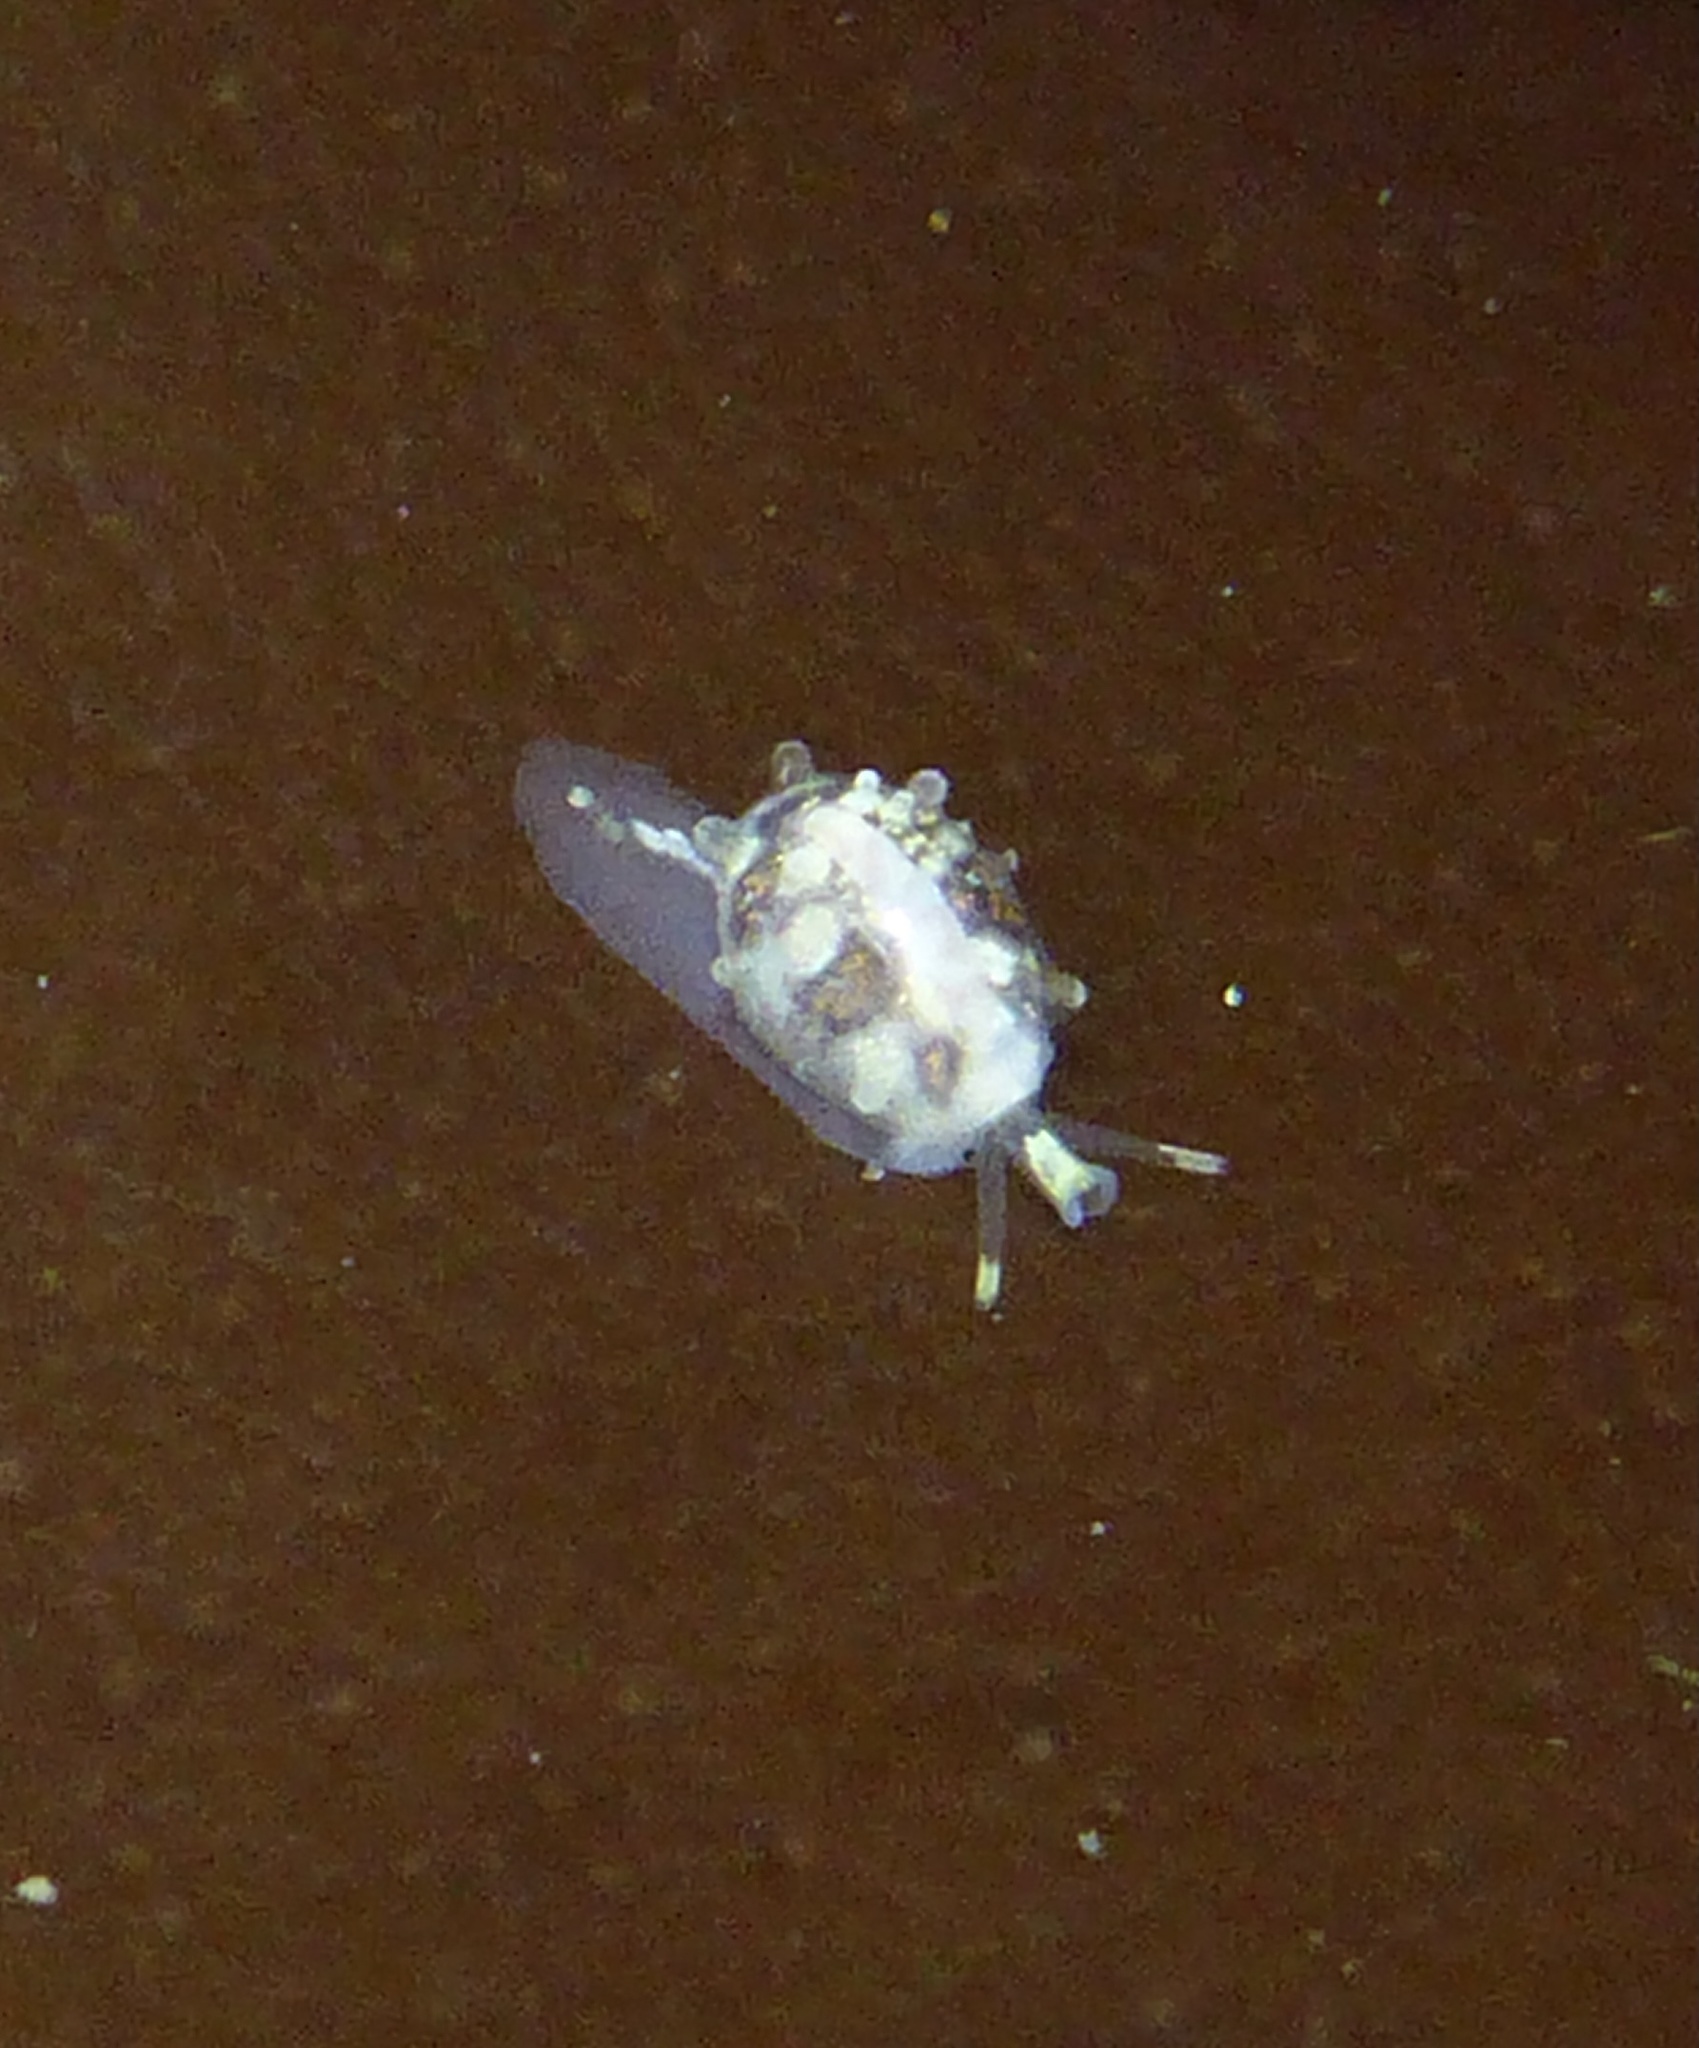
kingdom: Animalia
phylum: Mollusca
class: Gastropoda
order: Neogastropoda
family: Granulinidae
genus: Granulina
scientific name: Granulina margaritula
